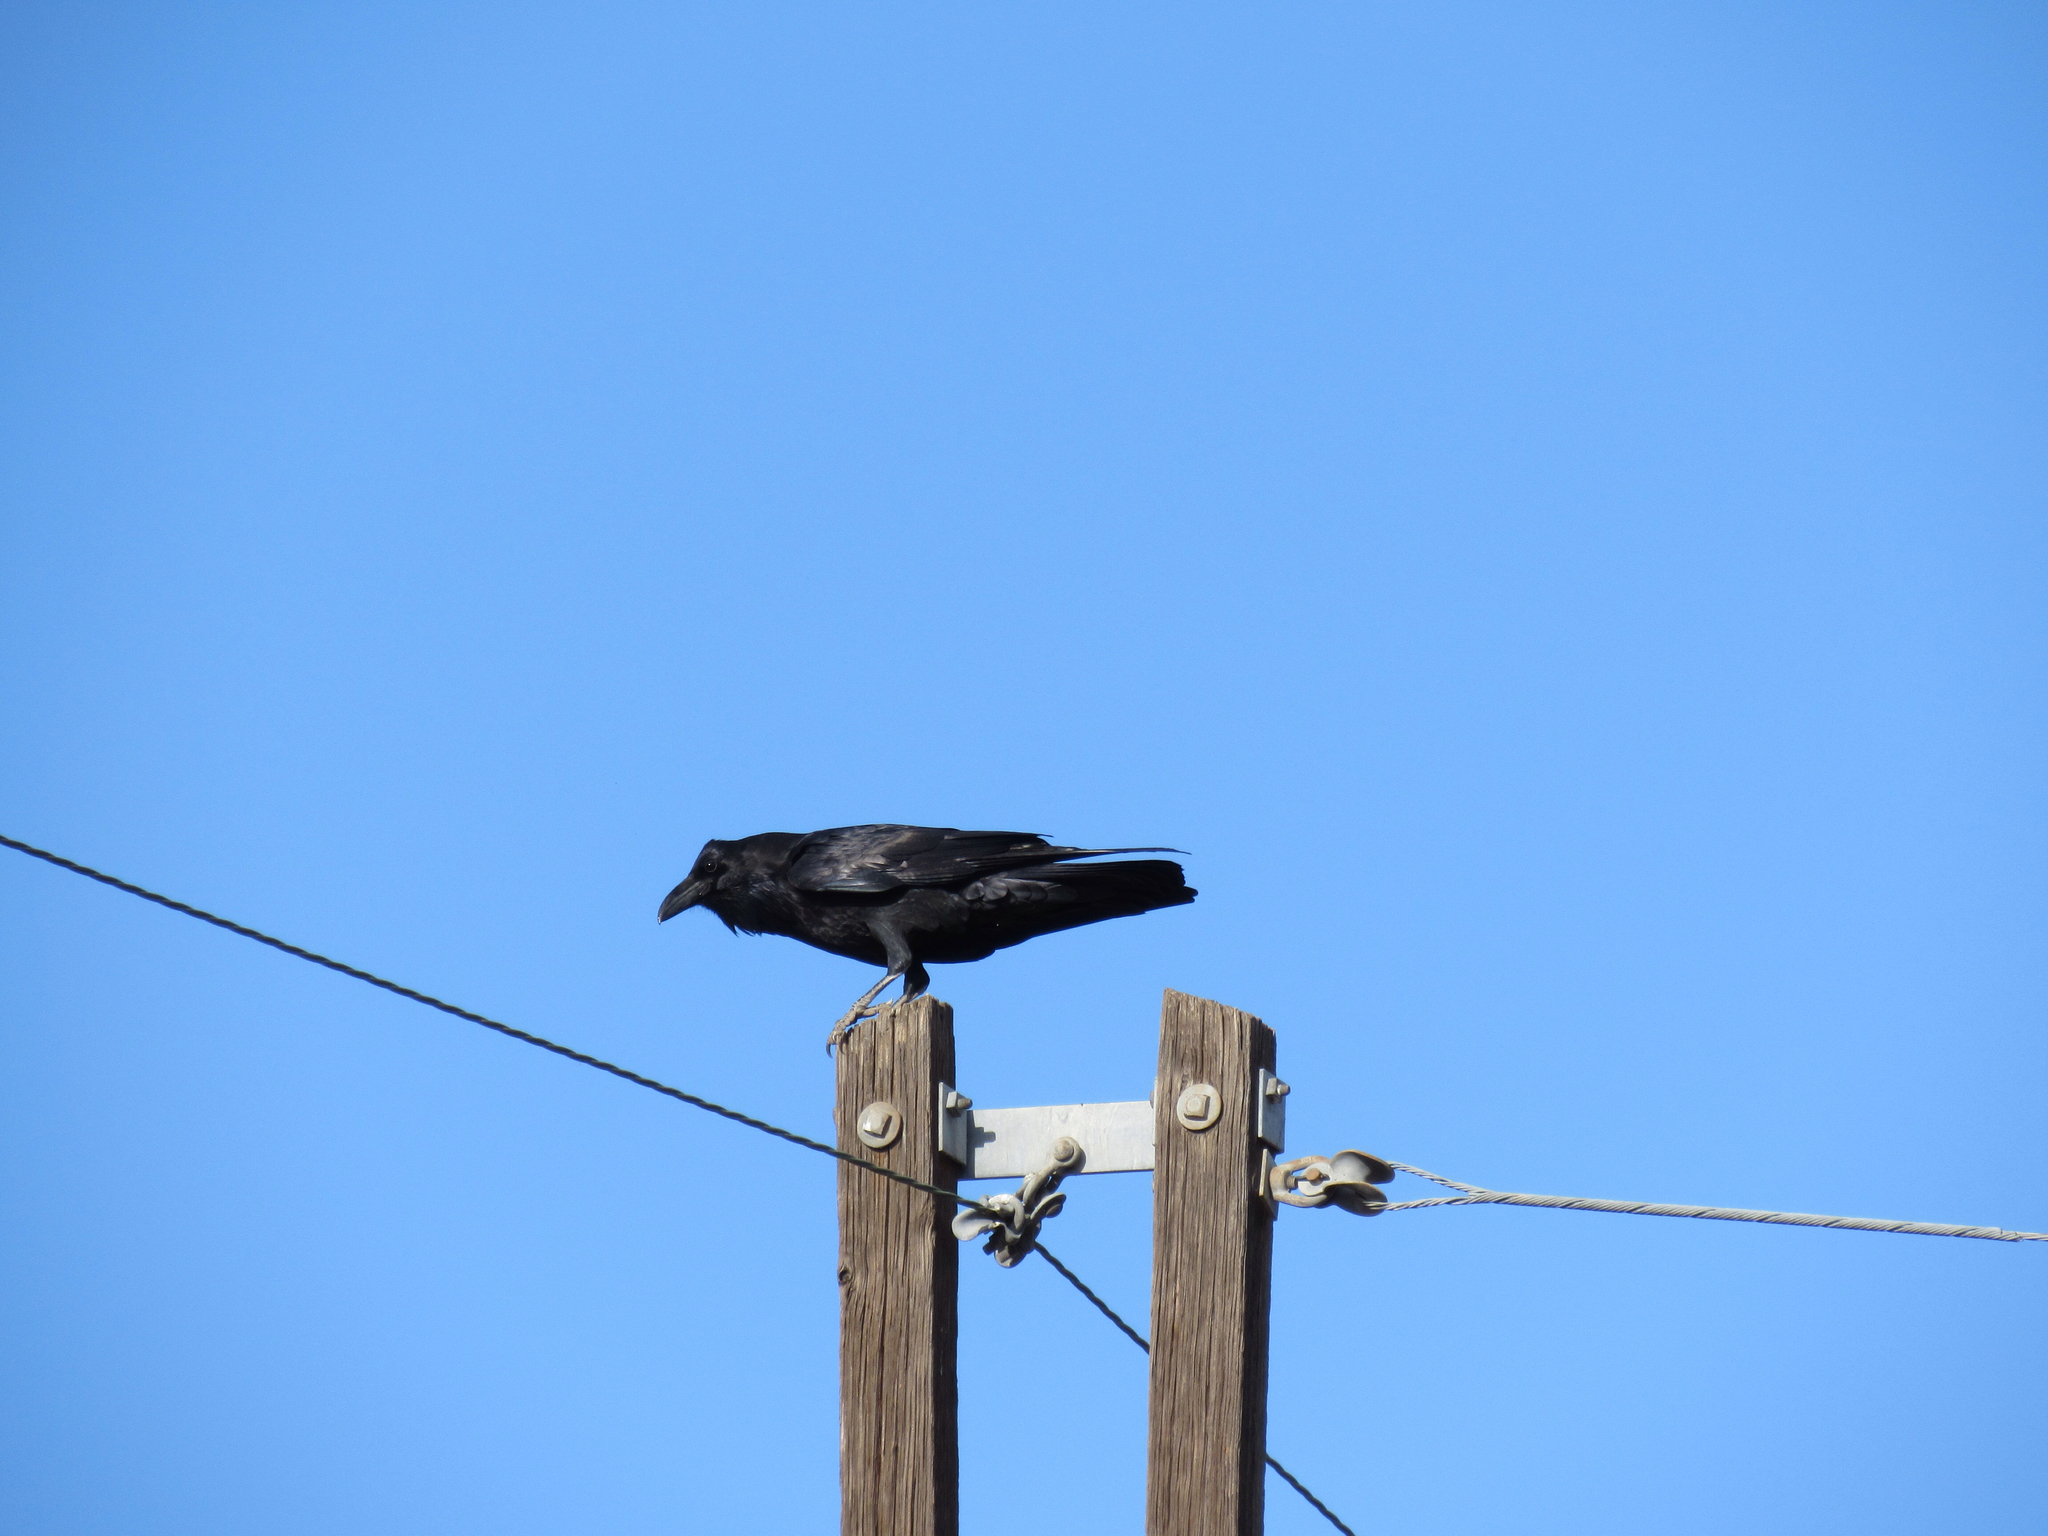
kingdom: Animalia
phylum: Chordata
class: Aves
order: Passeriformes
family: Corvidae
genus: Corvus
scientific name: Corvus corax
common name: Common raven
